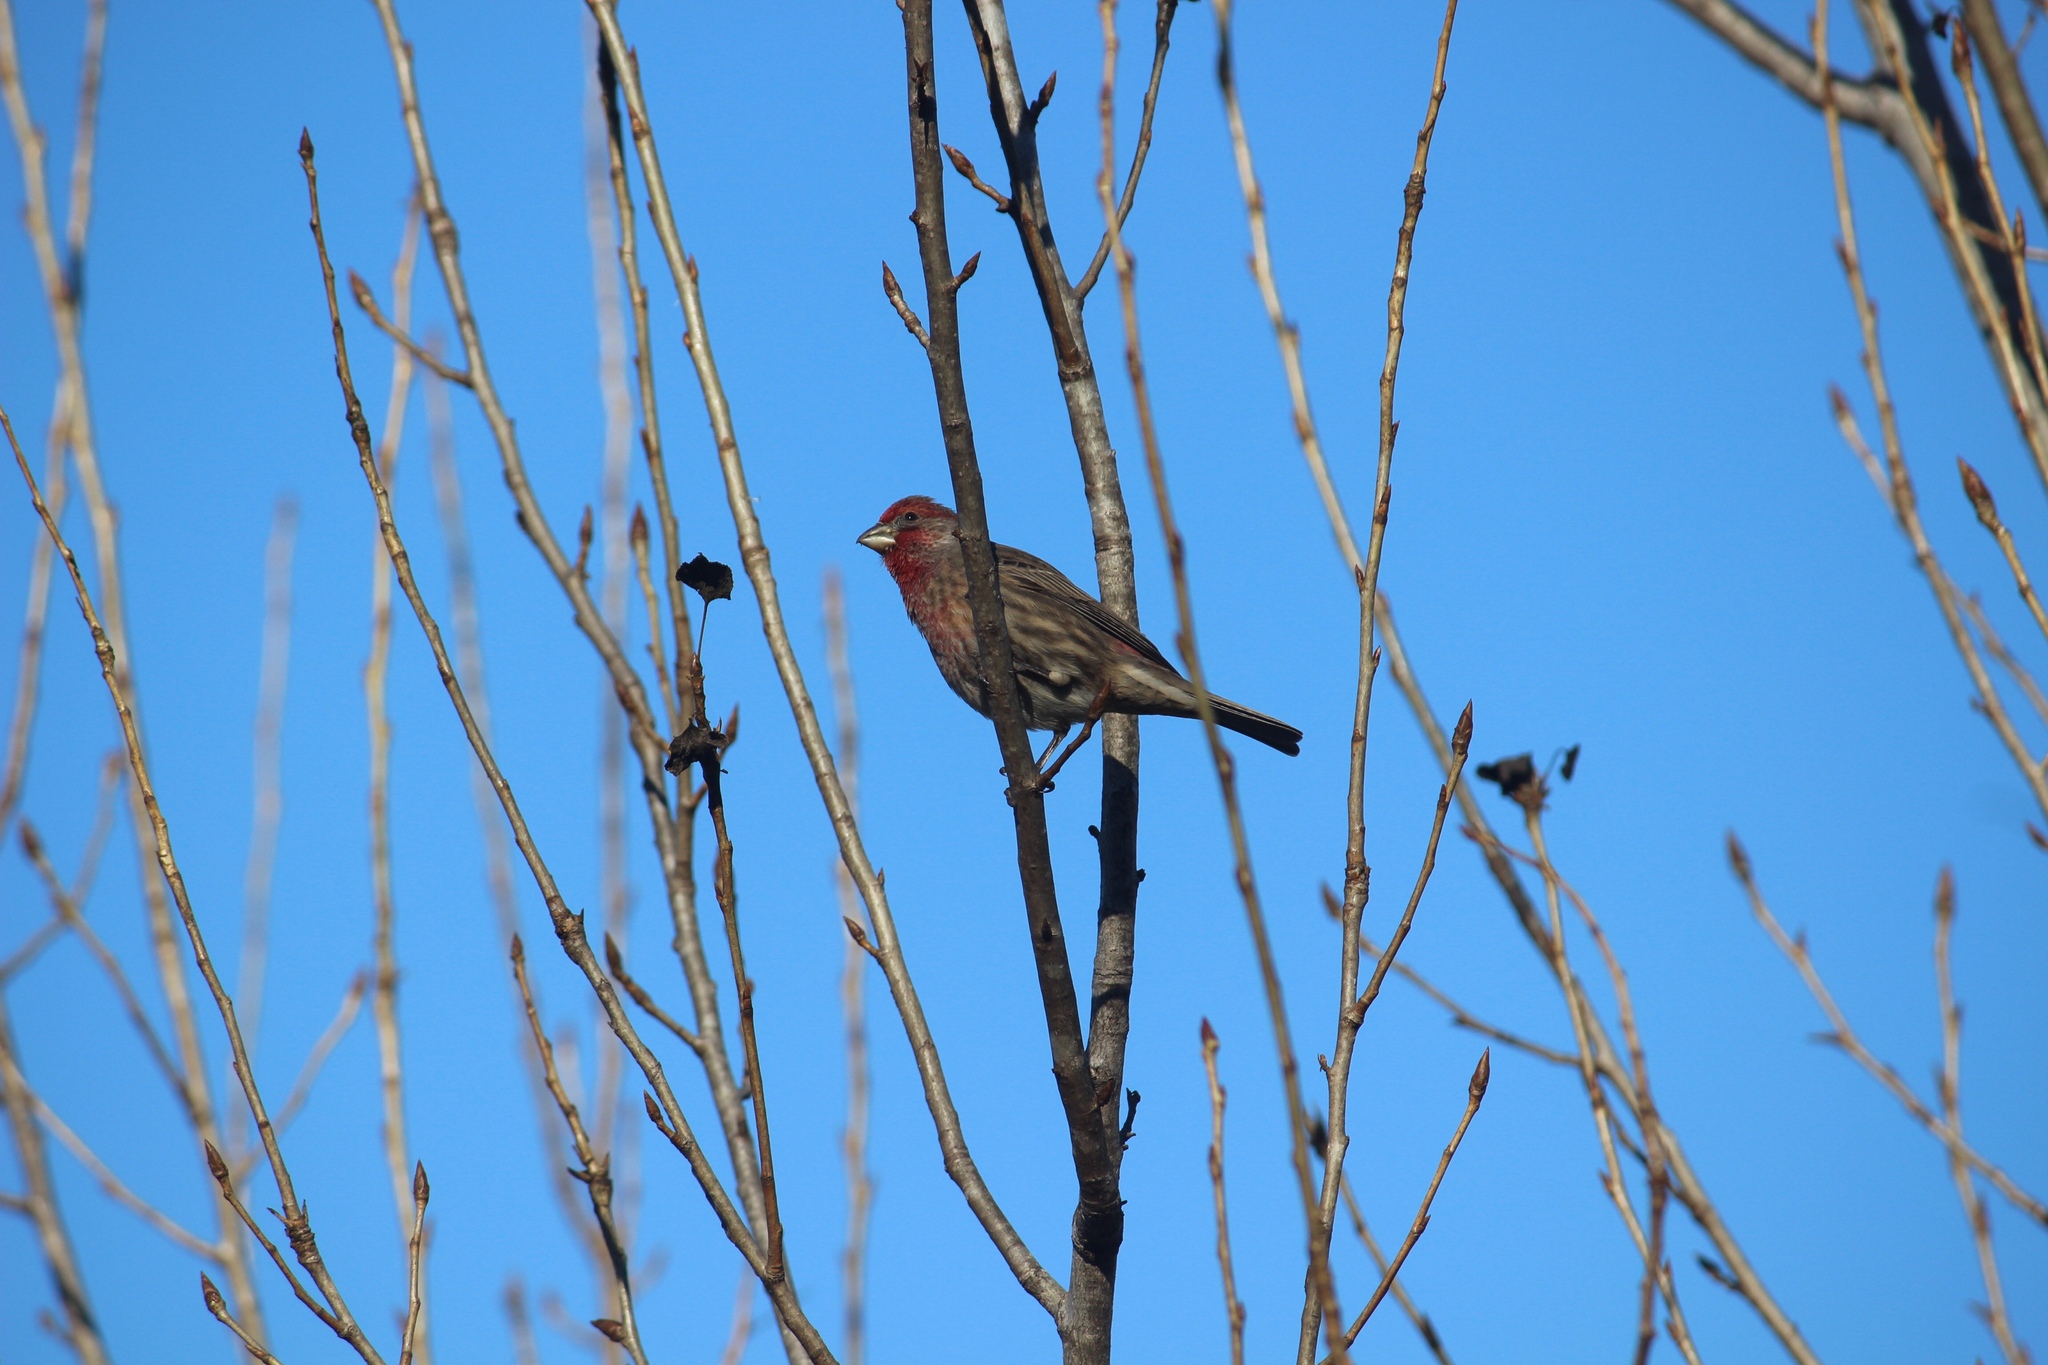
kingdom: Animalia
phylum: Chordata
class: Aves
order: Passeriformes
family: Fringillidae
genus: Haemorhous
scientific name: Haemorhous mexicanus
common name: House finch
